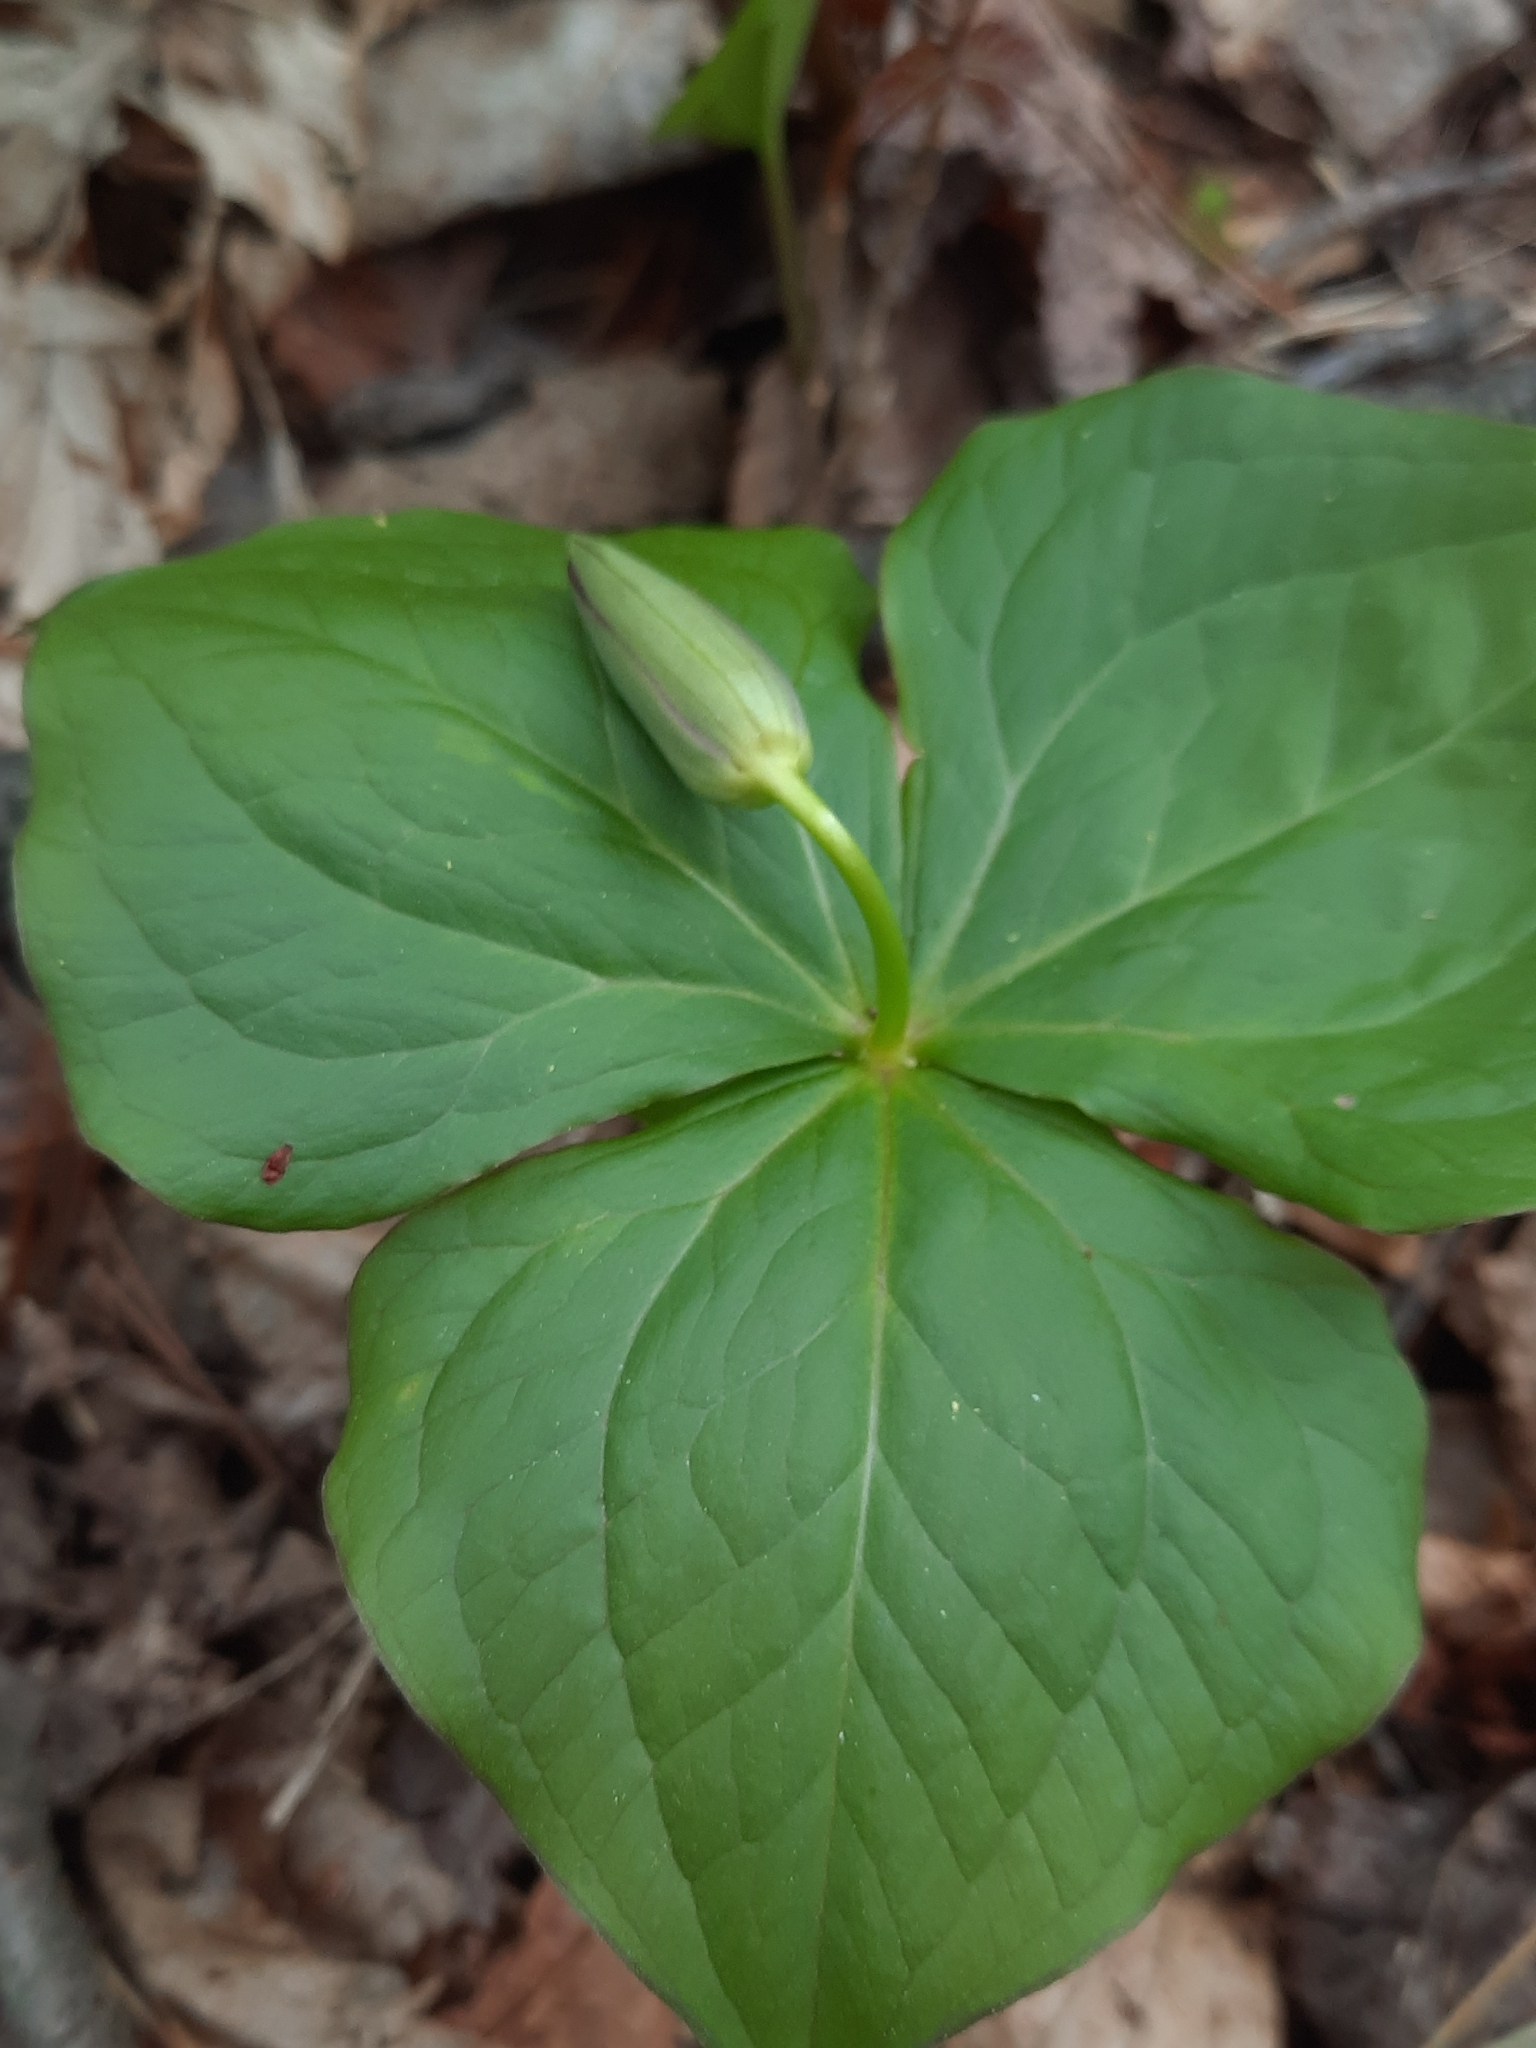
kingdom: Plantae
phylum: Tracheophyta
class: Liliopsida
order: Liliales
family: Melanthiaceae
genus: Trillium
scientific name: Trillium erectum
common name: Purple trillium
